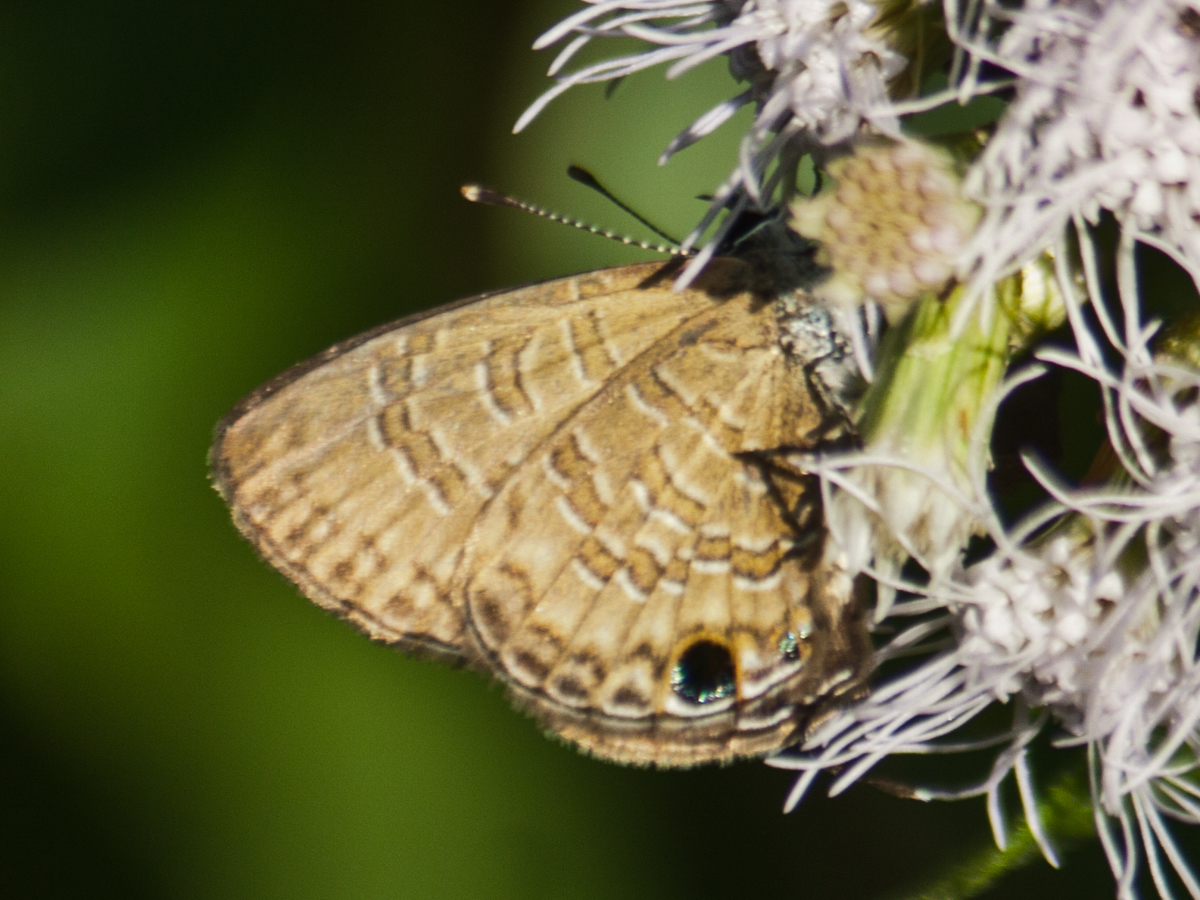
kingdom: Animalia
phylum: Arthropoda
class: Insecta
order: Lepidoptera
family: Lycaenidae
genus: Prosotas
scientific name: Prosotas dubiosa
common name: Tailless lineblue
